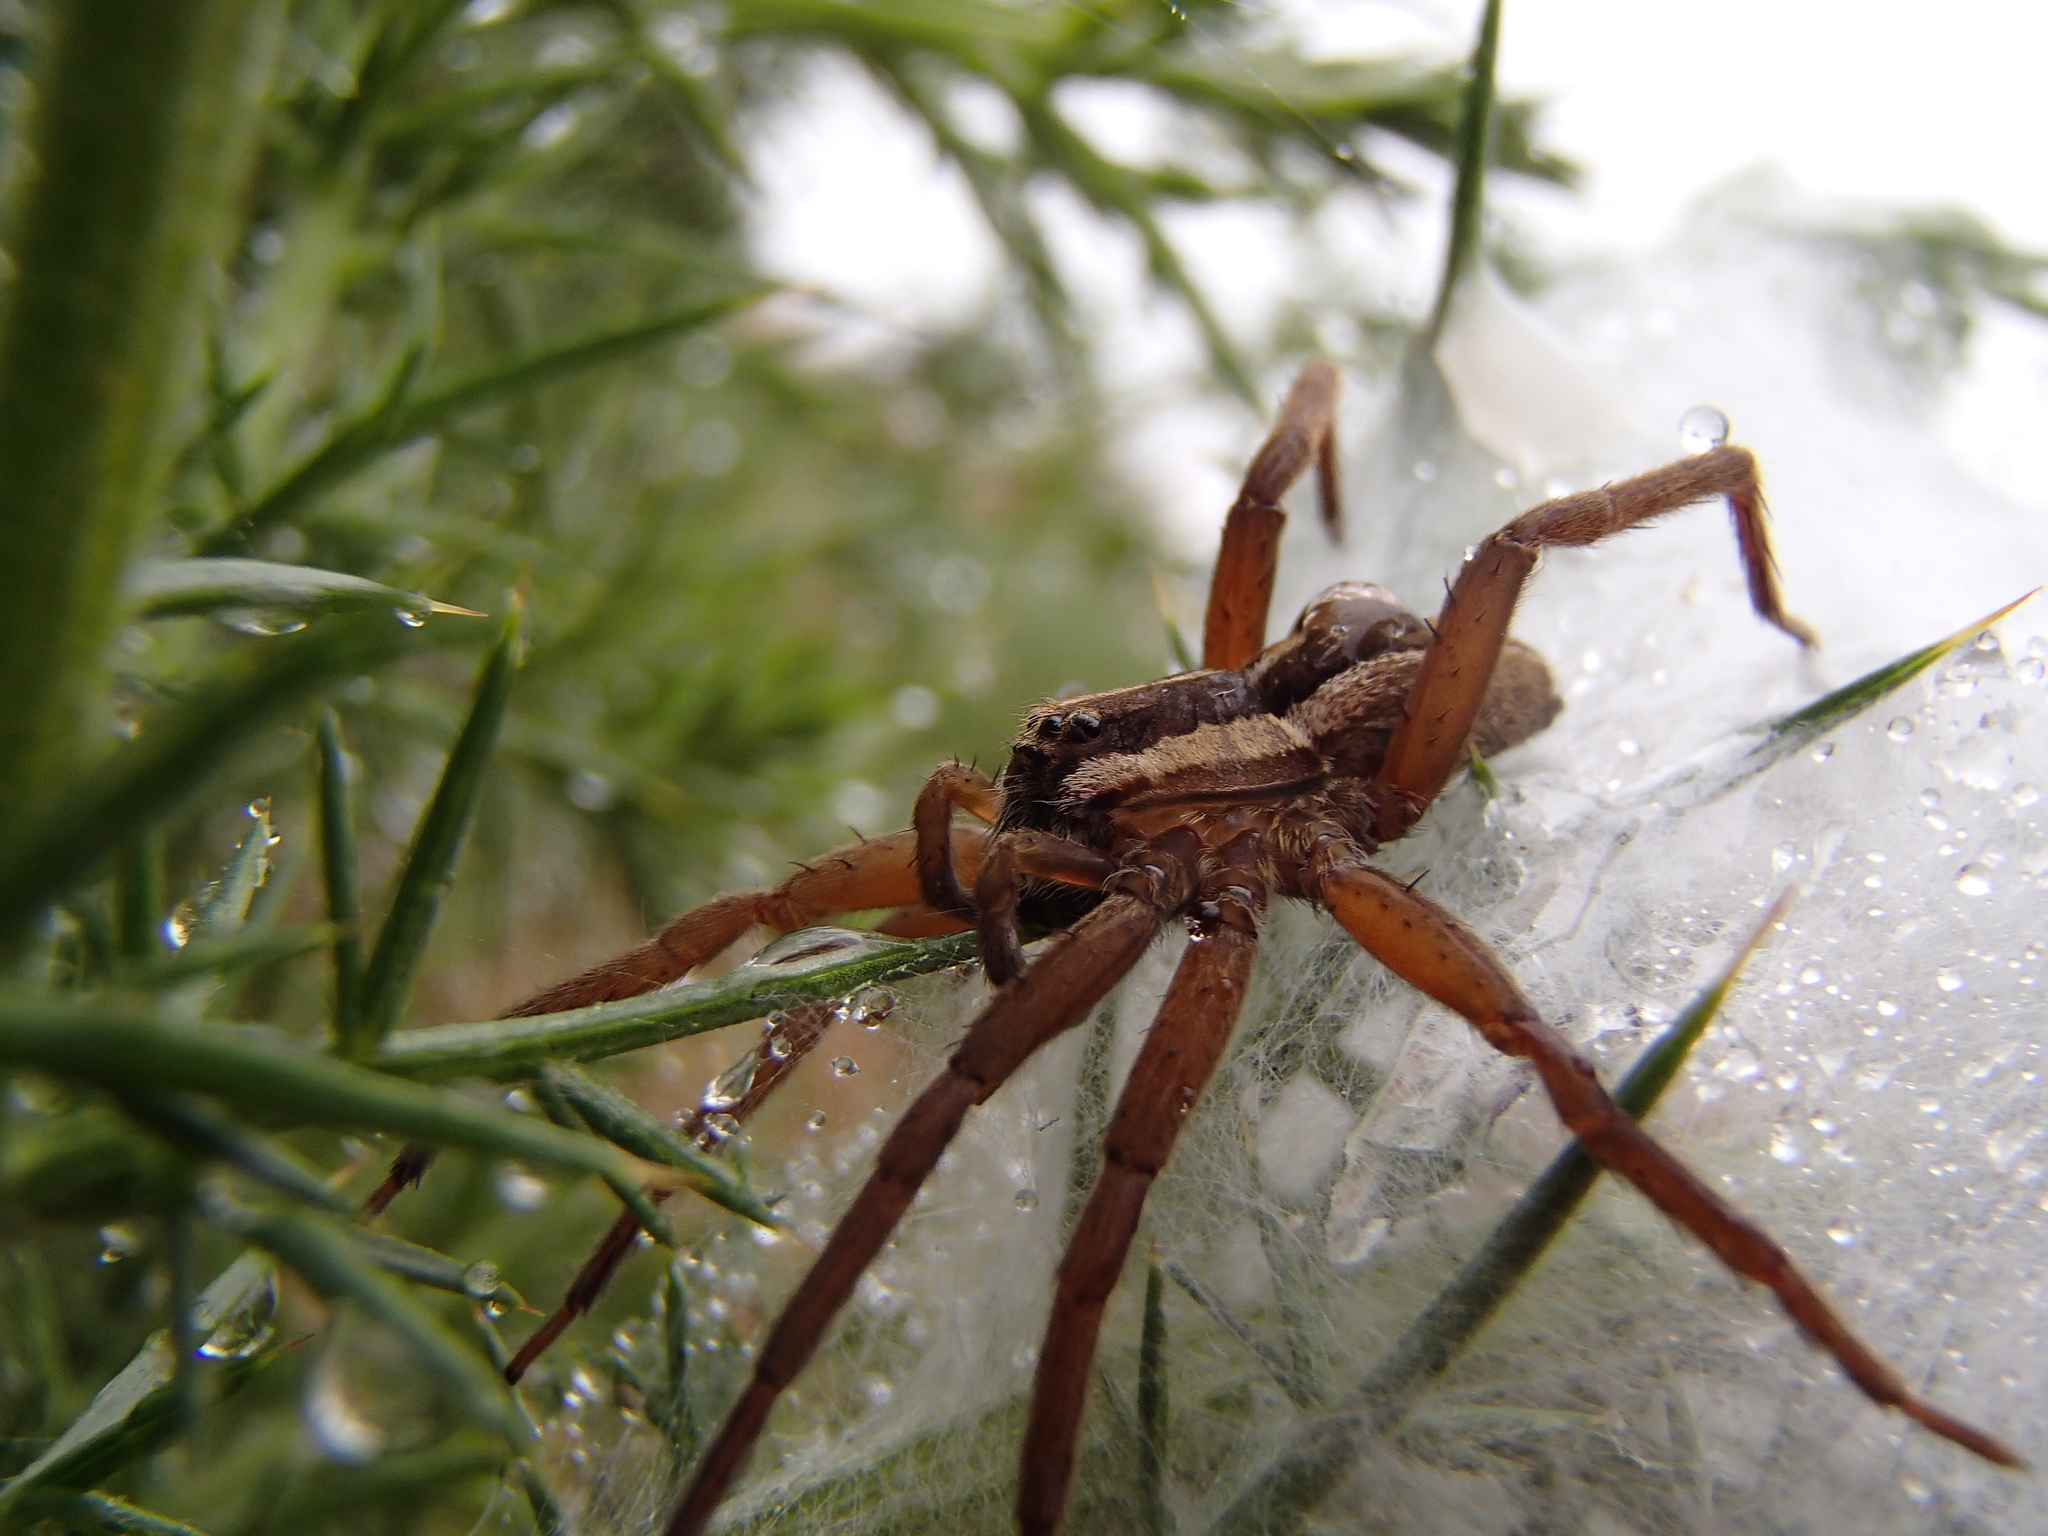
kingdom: Animalia
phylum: Arthropoda
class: Arachnida
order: Araneae
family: Pisauridae
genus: Dolomedes
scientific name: Dolomedes minor
